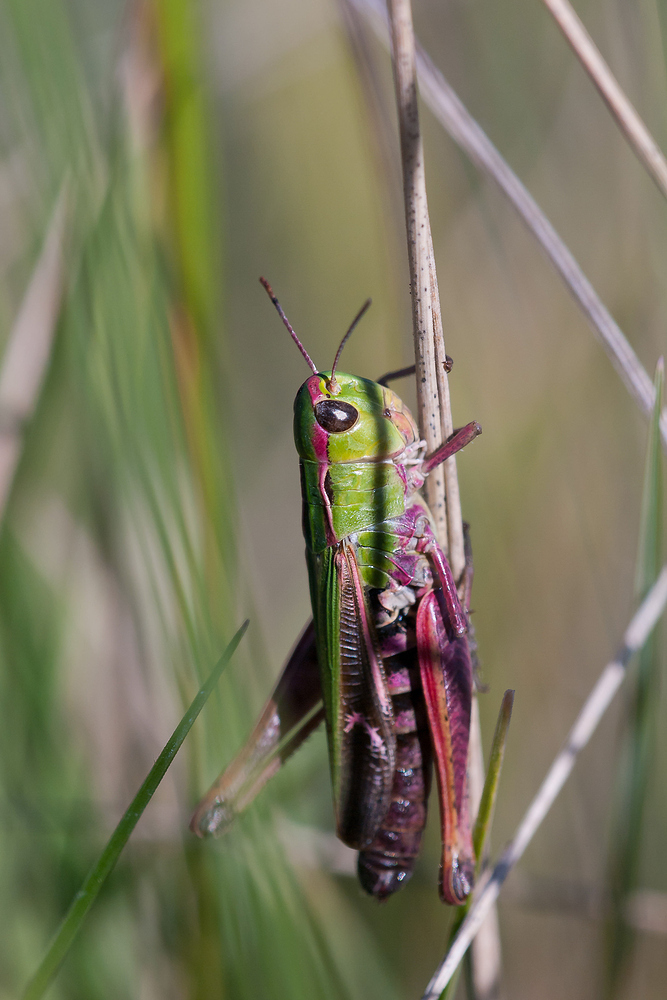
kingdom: Animalia
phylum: Arthropoda
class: Insecta
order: Orthoptera
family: Acrididae
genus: Stenobothrus
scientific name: Stenobothrus lineatus
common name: Stripe-winged grasshopper
